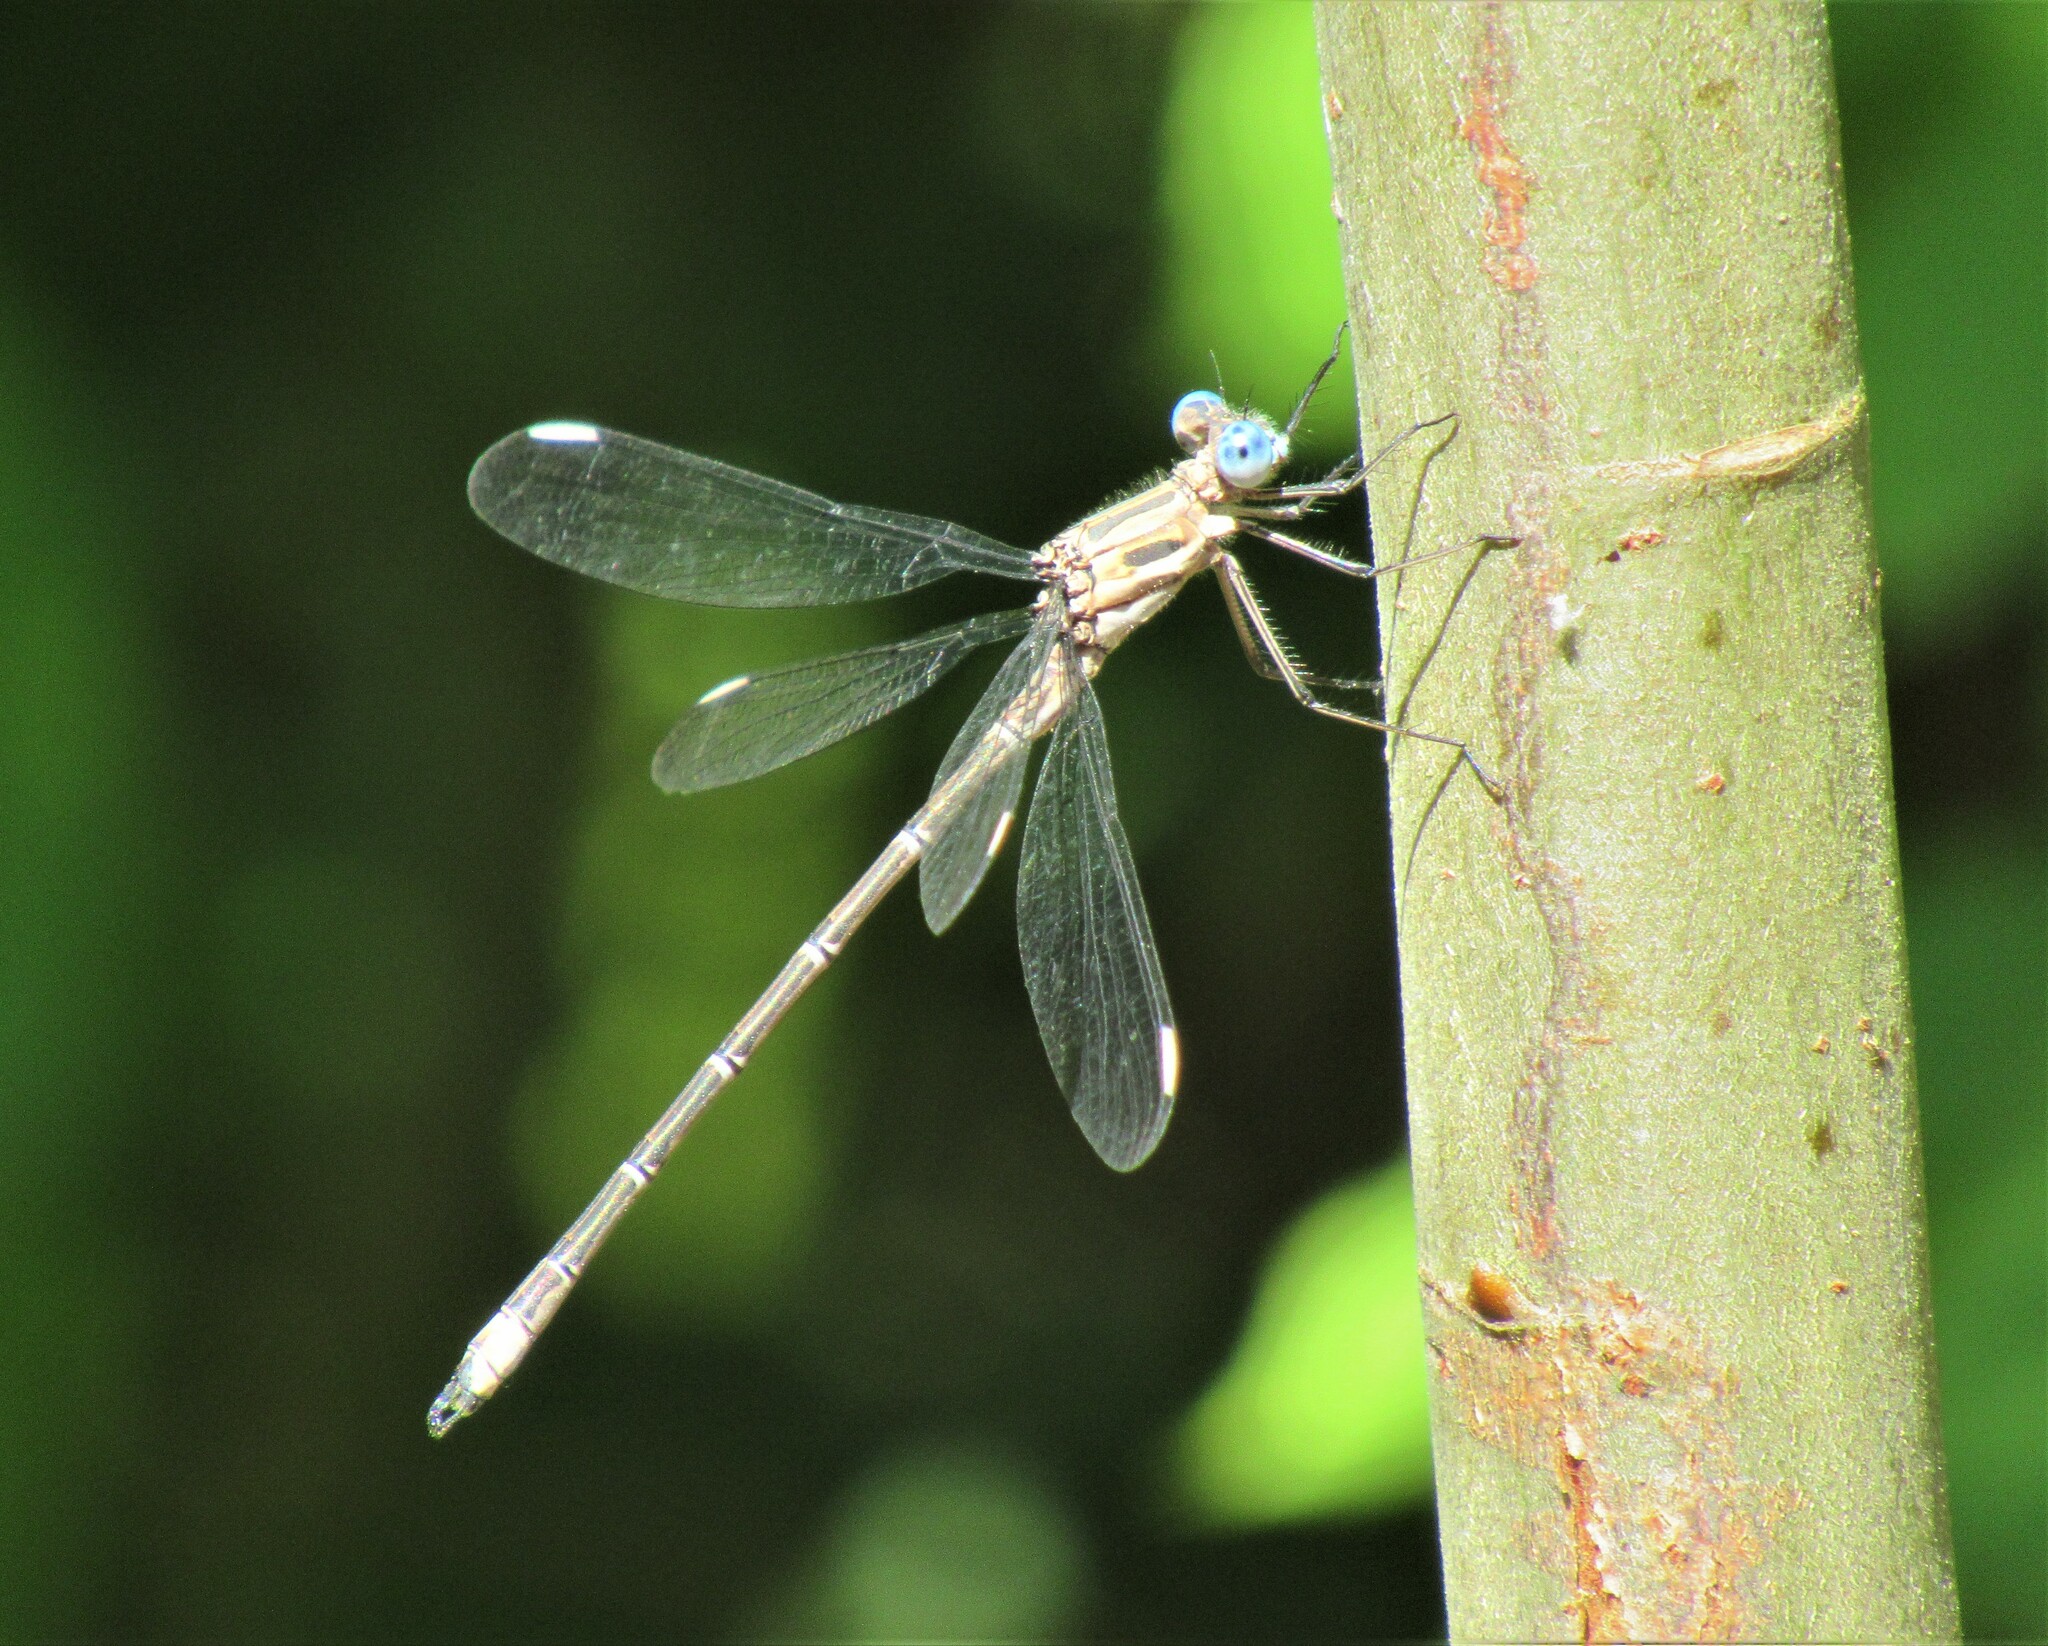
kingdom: Animalia
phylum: Arthropoda
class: Insecta
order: Odonata
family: Lestidae
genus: Archilestes
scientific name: Archilestes californicus
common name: California spreadwing
